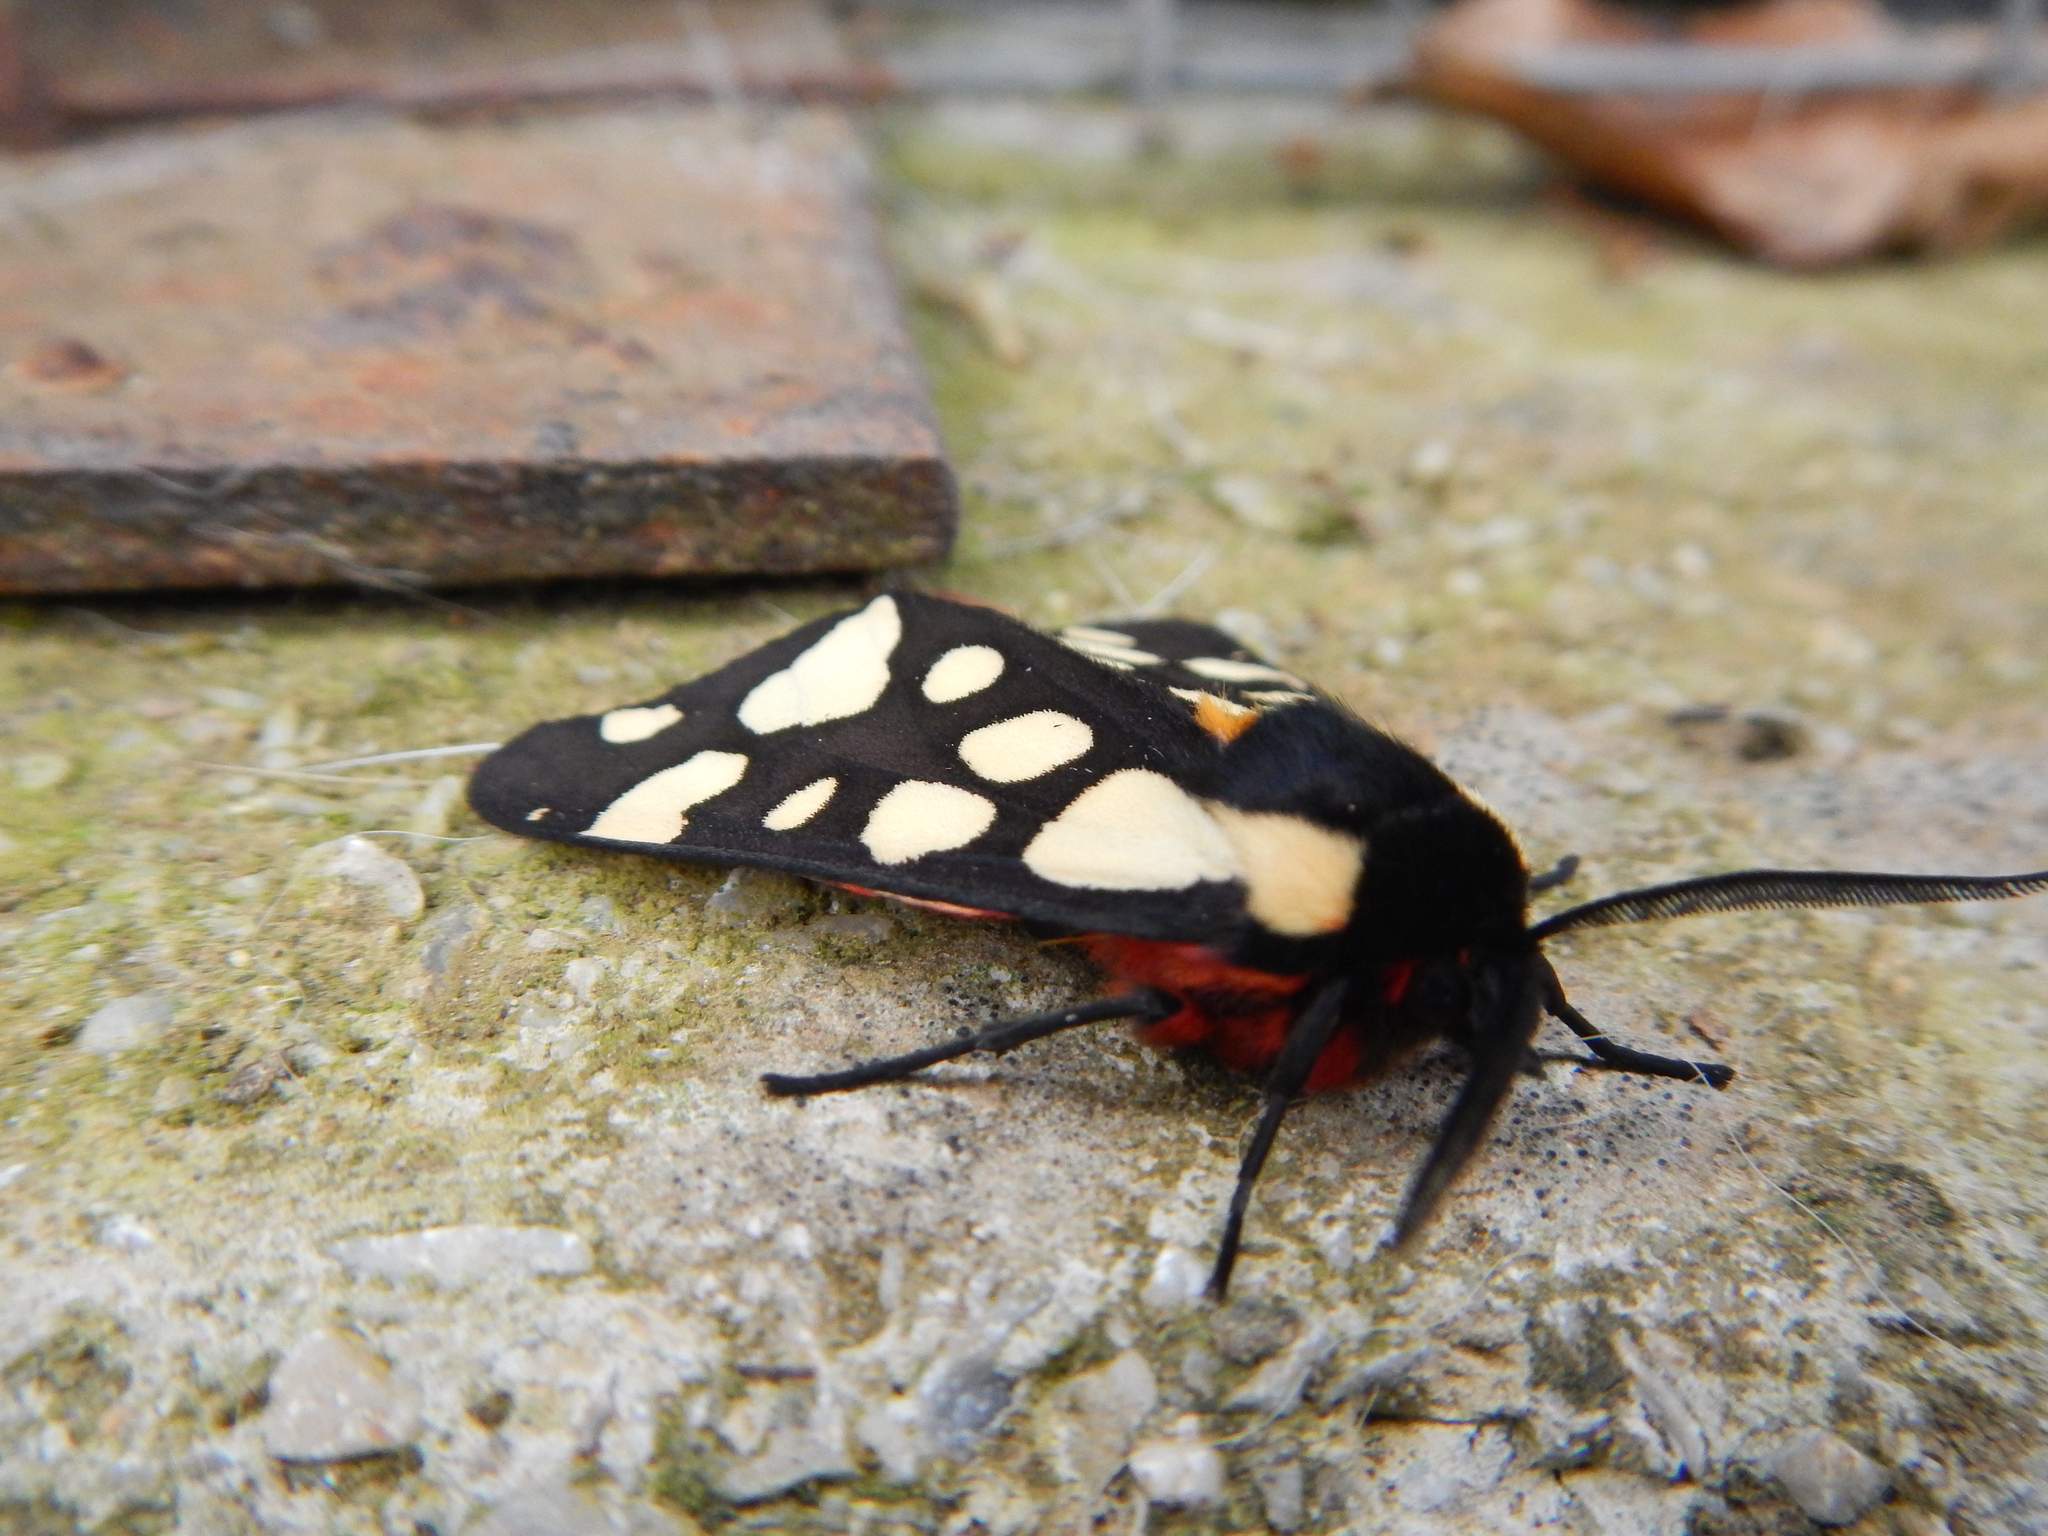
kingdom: Animalia
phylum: Arthropoda
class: Insecta
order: Lepidoptera
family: Erebidae
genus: Epicallia
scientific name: Epicallia villica
